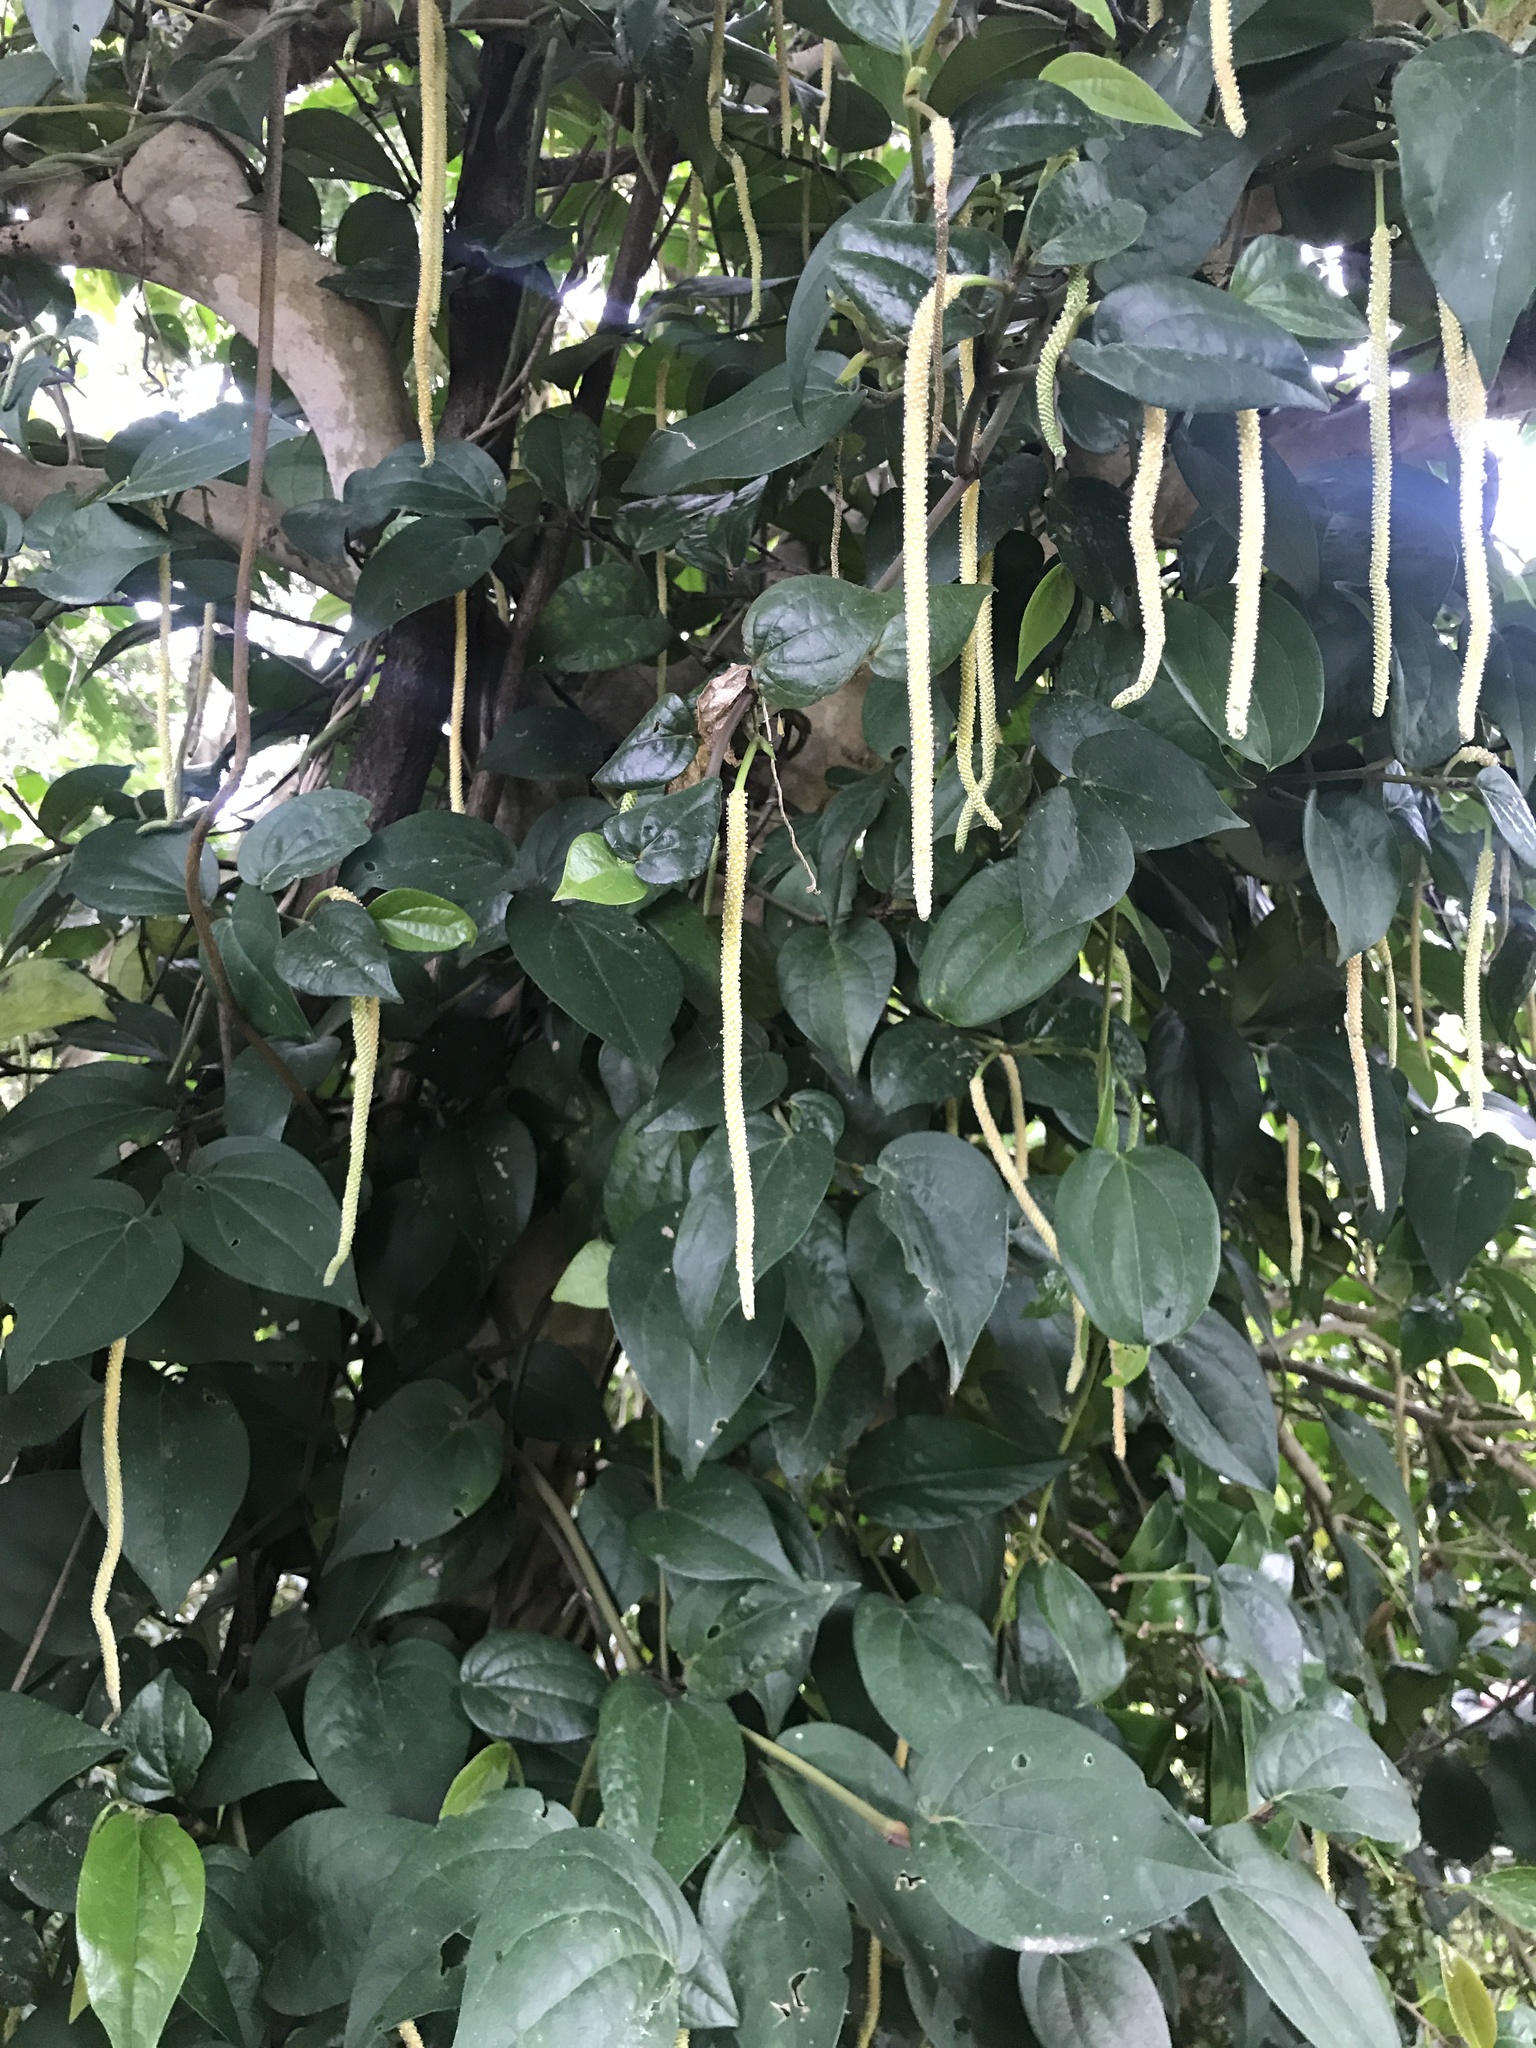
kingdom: Plantae
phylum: Tracheophyta
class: Magnoliopsida
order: Piperales
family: Piperaceae
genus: Piper
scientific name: Piper kadsura
